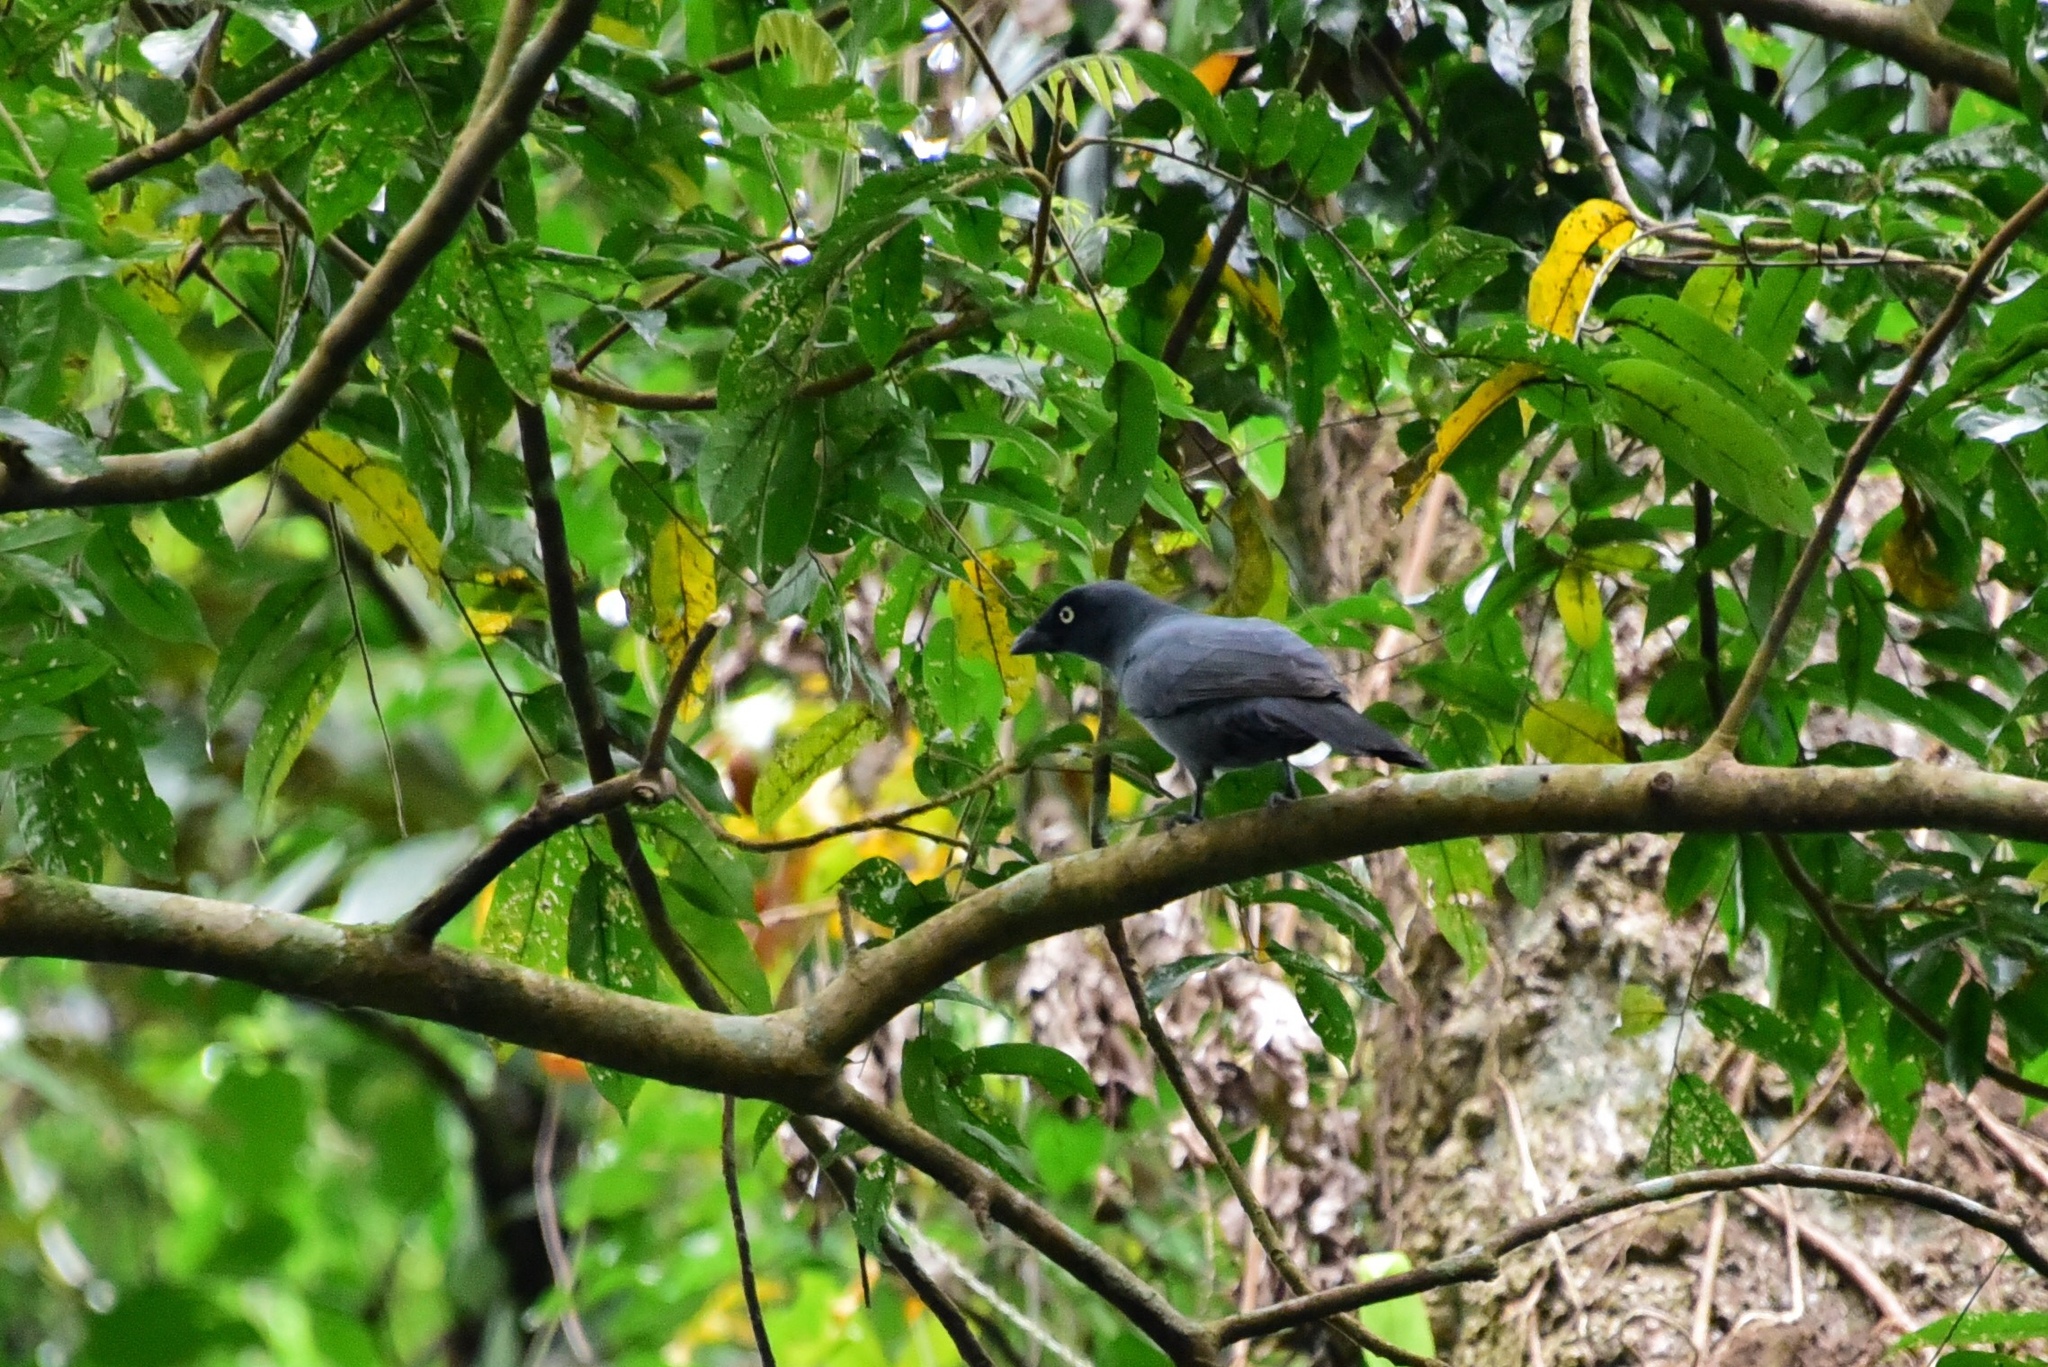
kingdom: Animalia
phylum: Chordata
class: Aves
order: Passeriformes
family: Campephagidae
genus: Coracina
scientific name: Coracina caledonica
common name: South melanesian cuckooshrike
